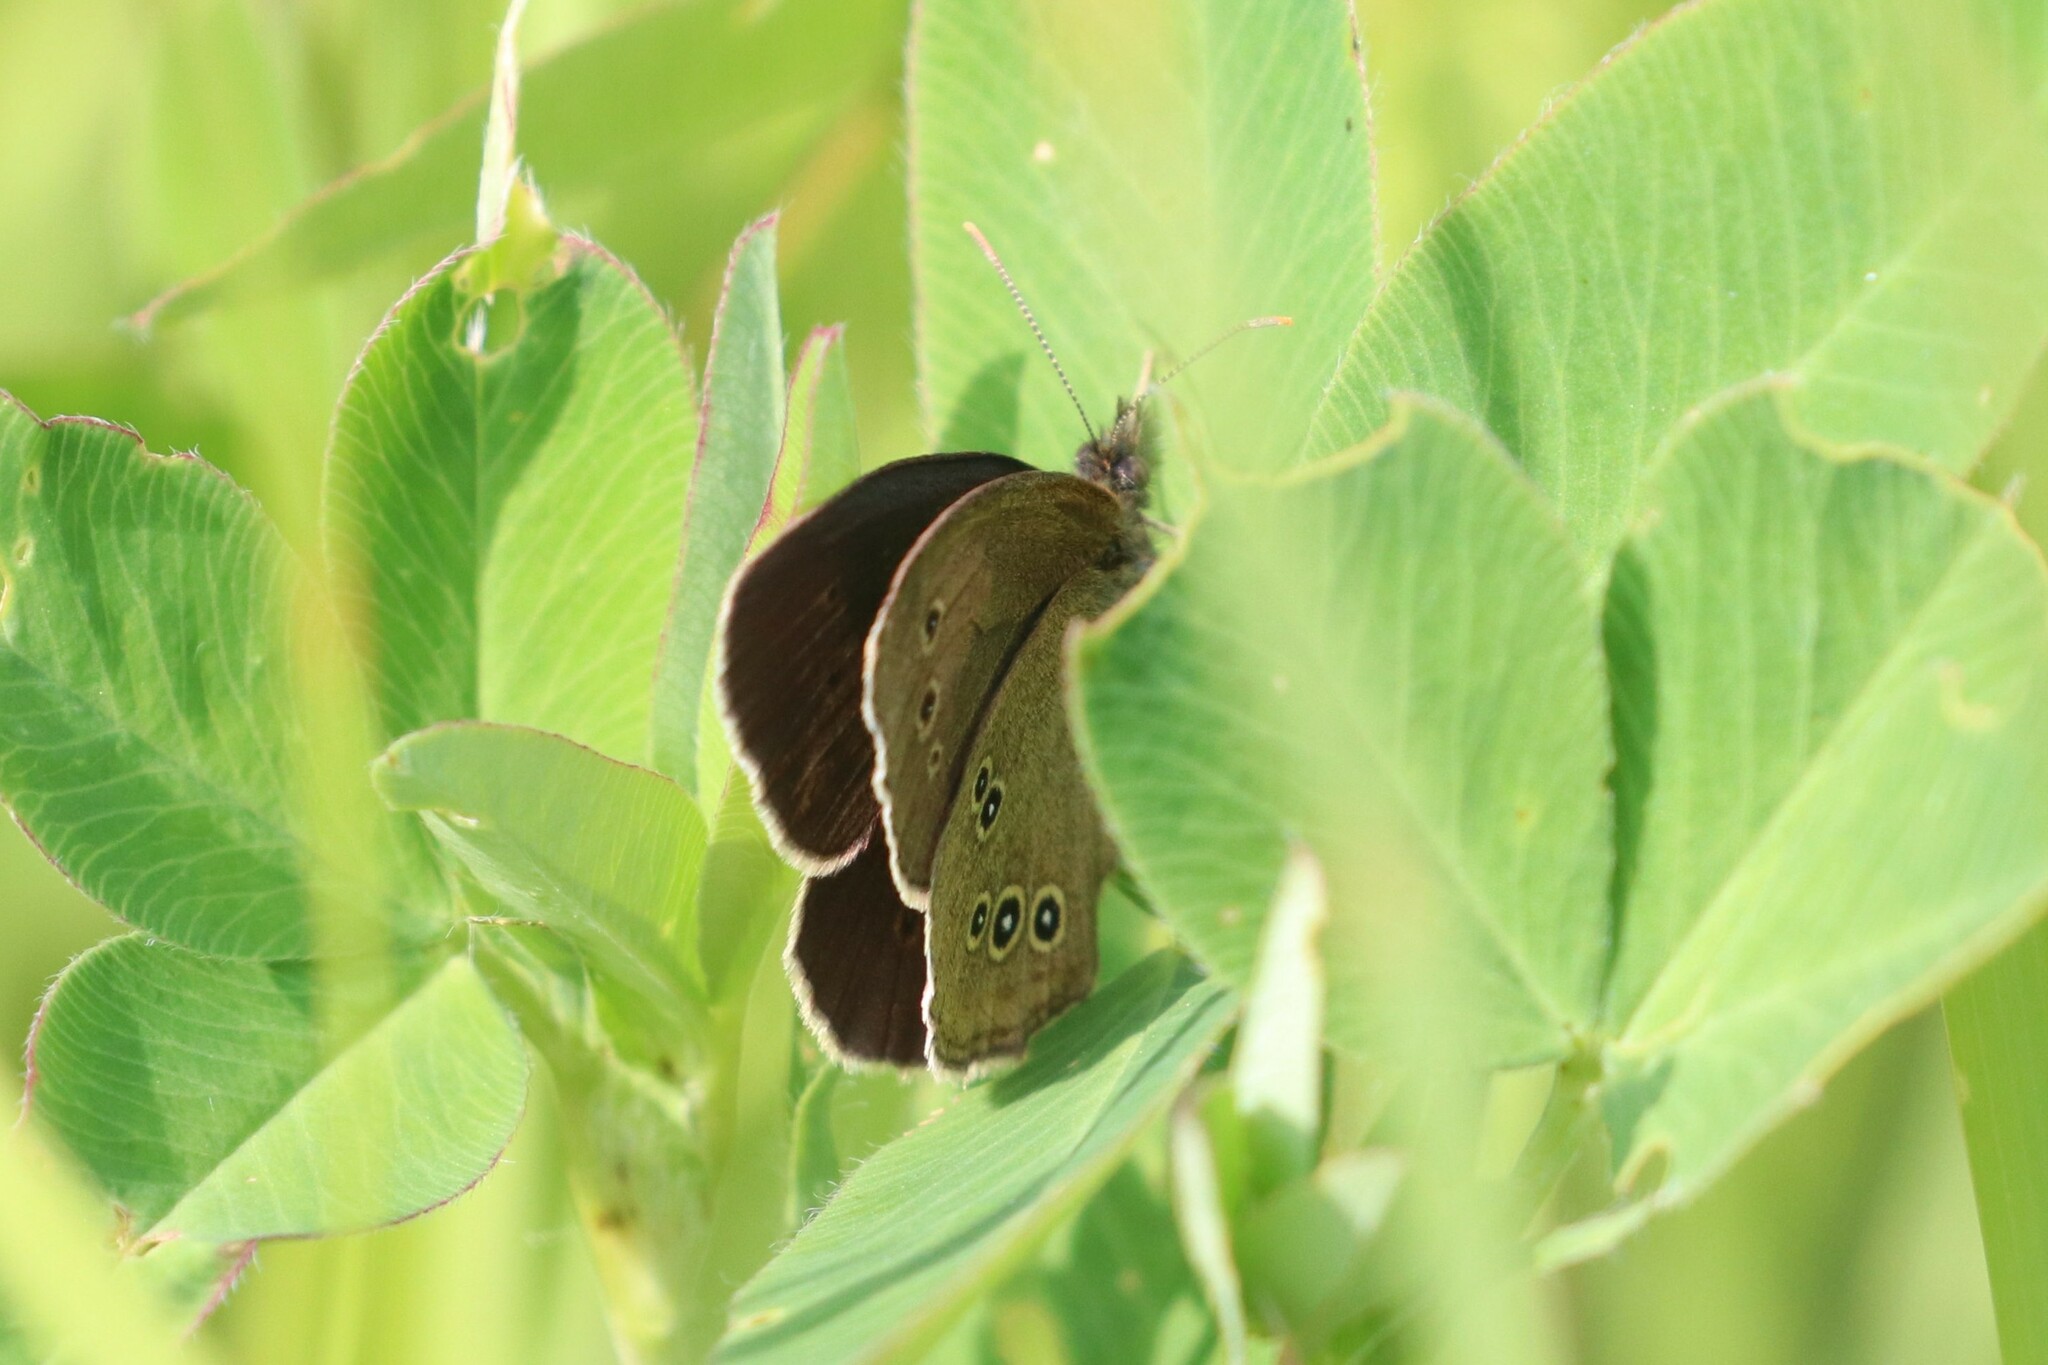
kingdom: Animalia
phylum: Arthropoda
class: Insecta
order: Lepidoptera
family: Nymphalidae
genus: Aphantopus
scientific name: Aphantopus hyperantus
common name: Ringlet
